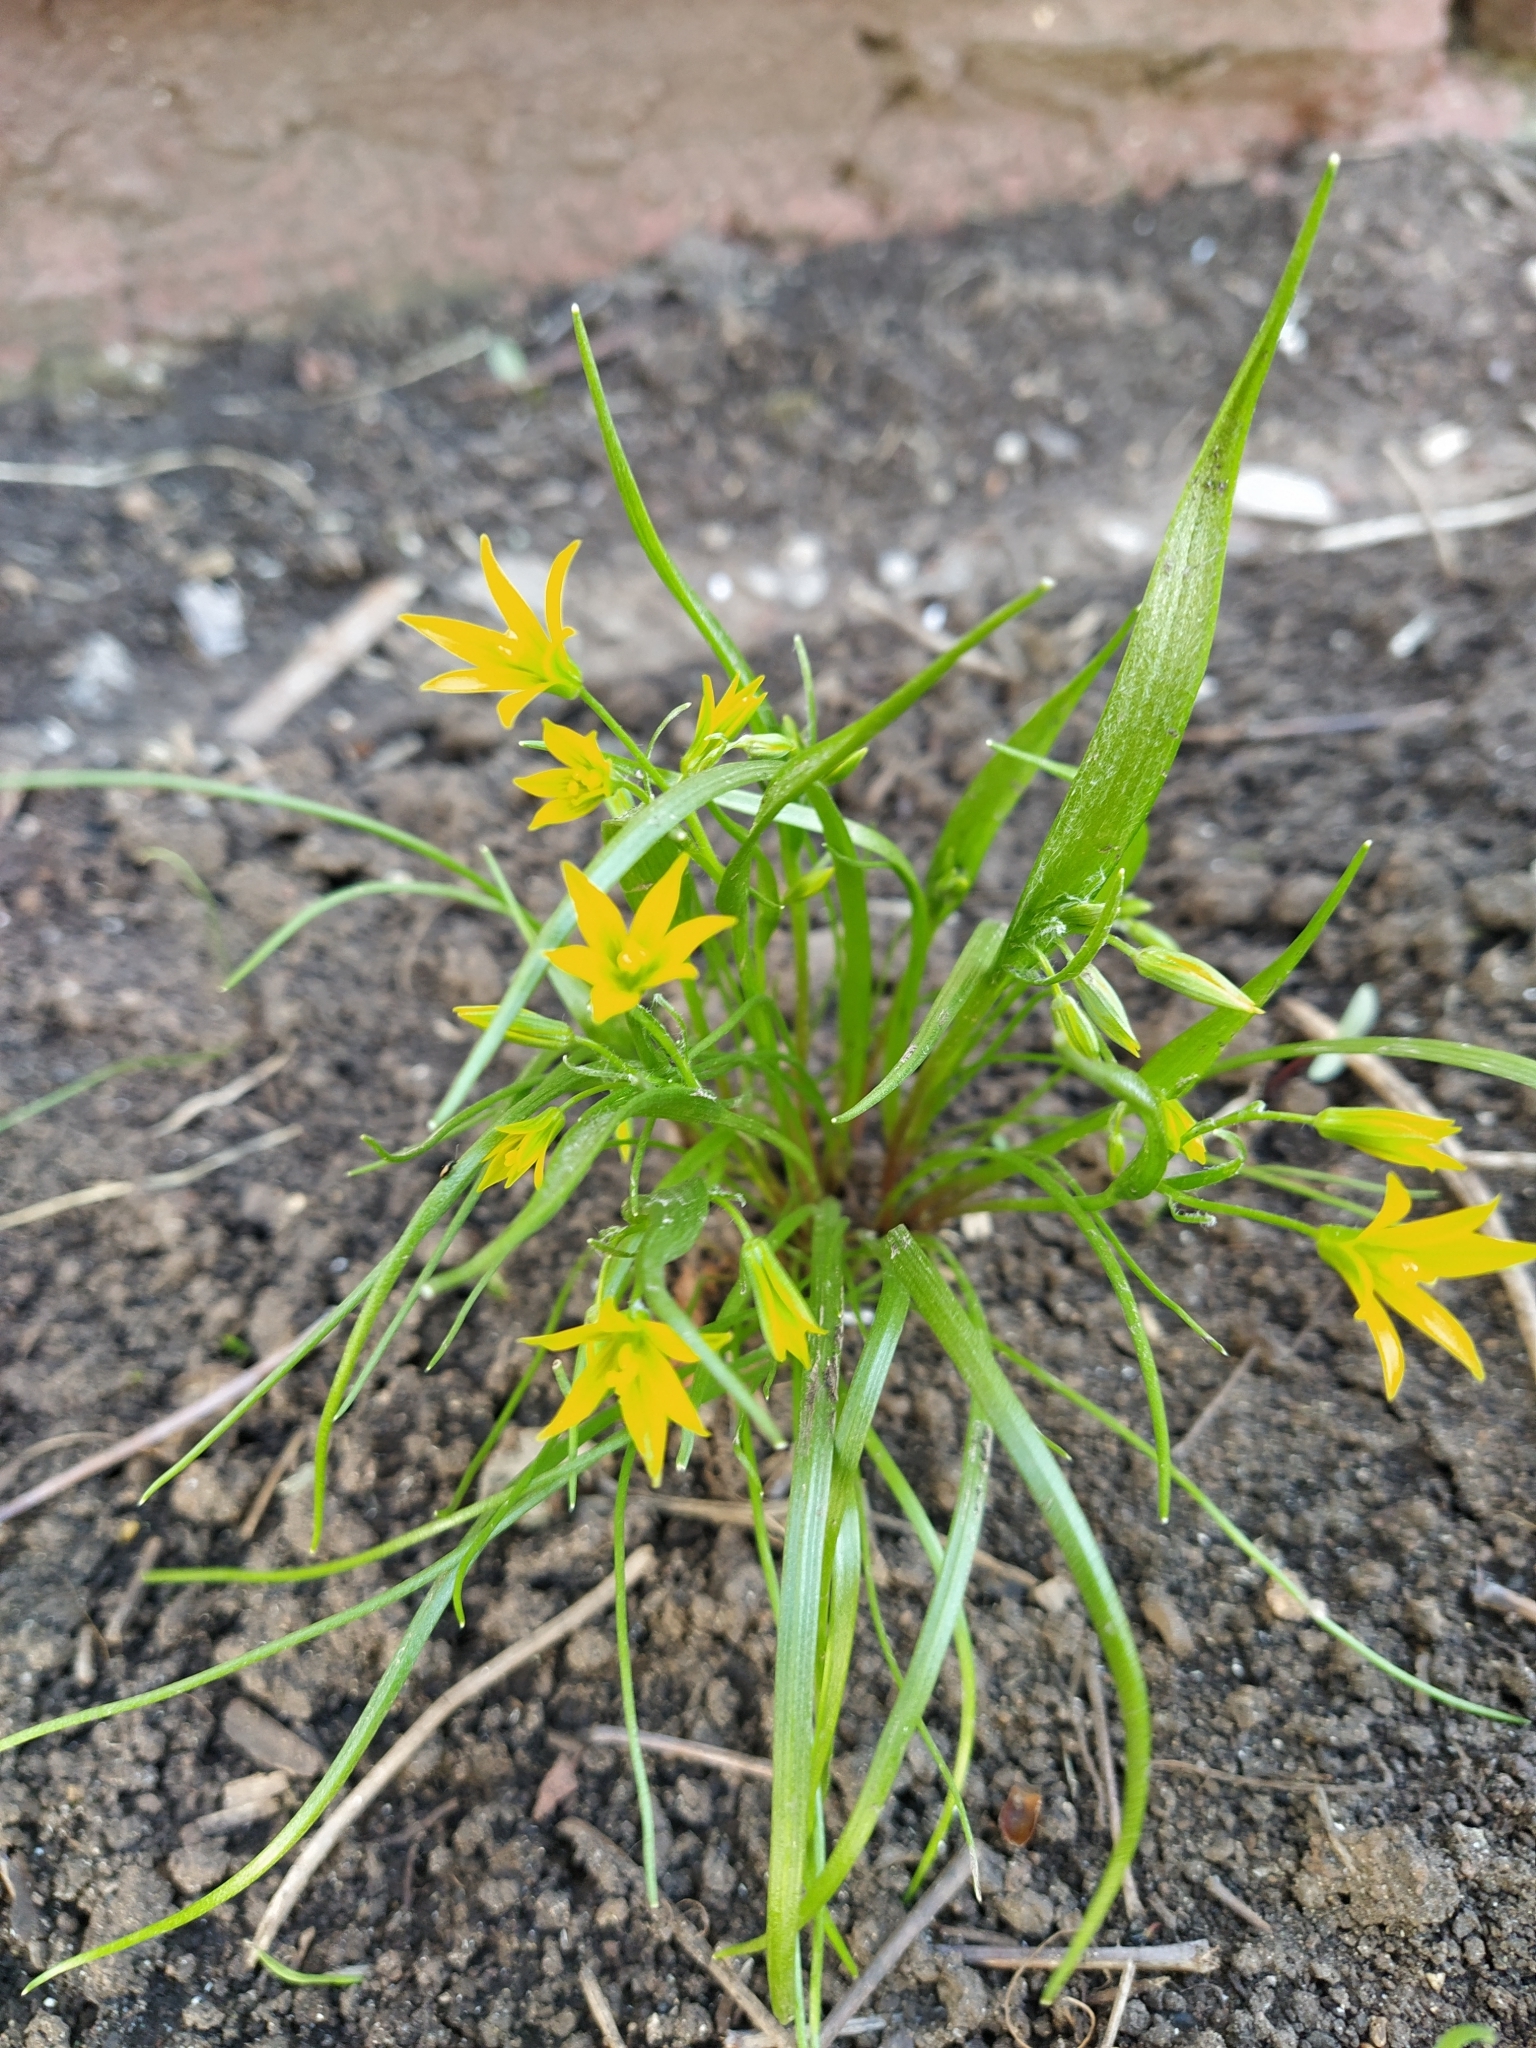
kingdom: Plantae
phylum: Tracheophyta
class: Liliopsida
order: Liliales
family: Liliaceae
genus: Gagea
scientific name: Gagea minima
